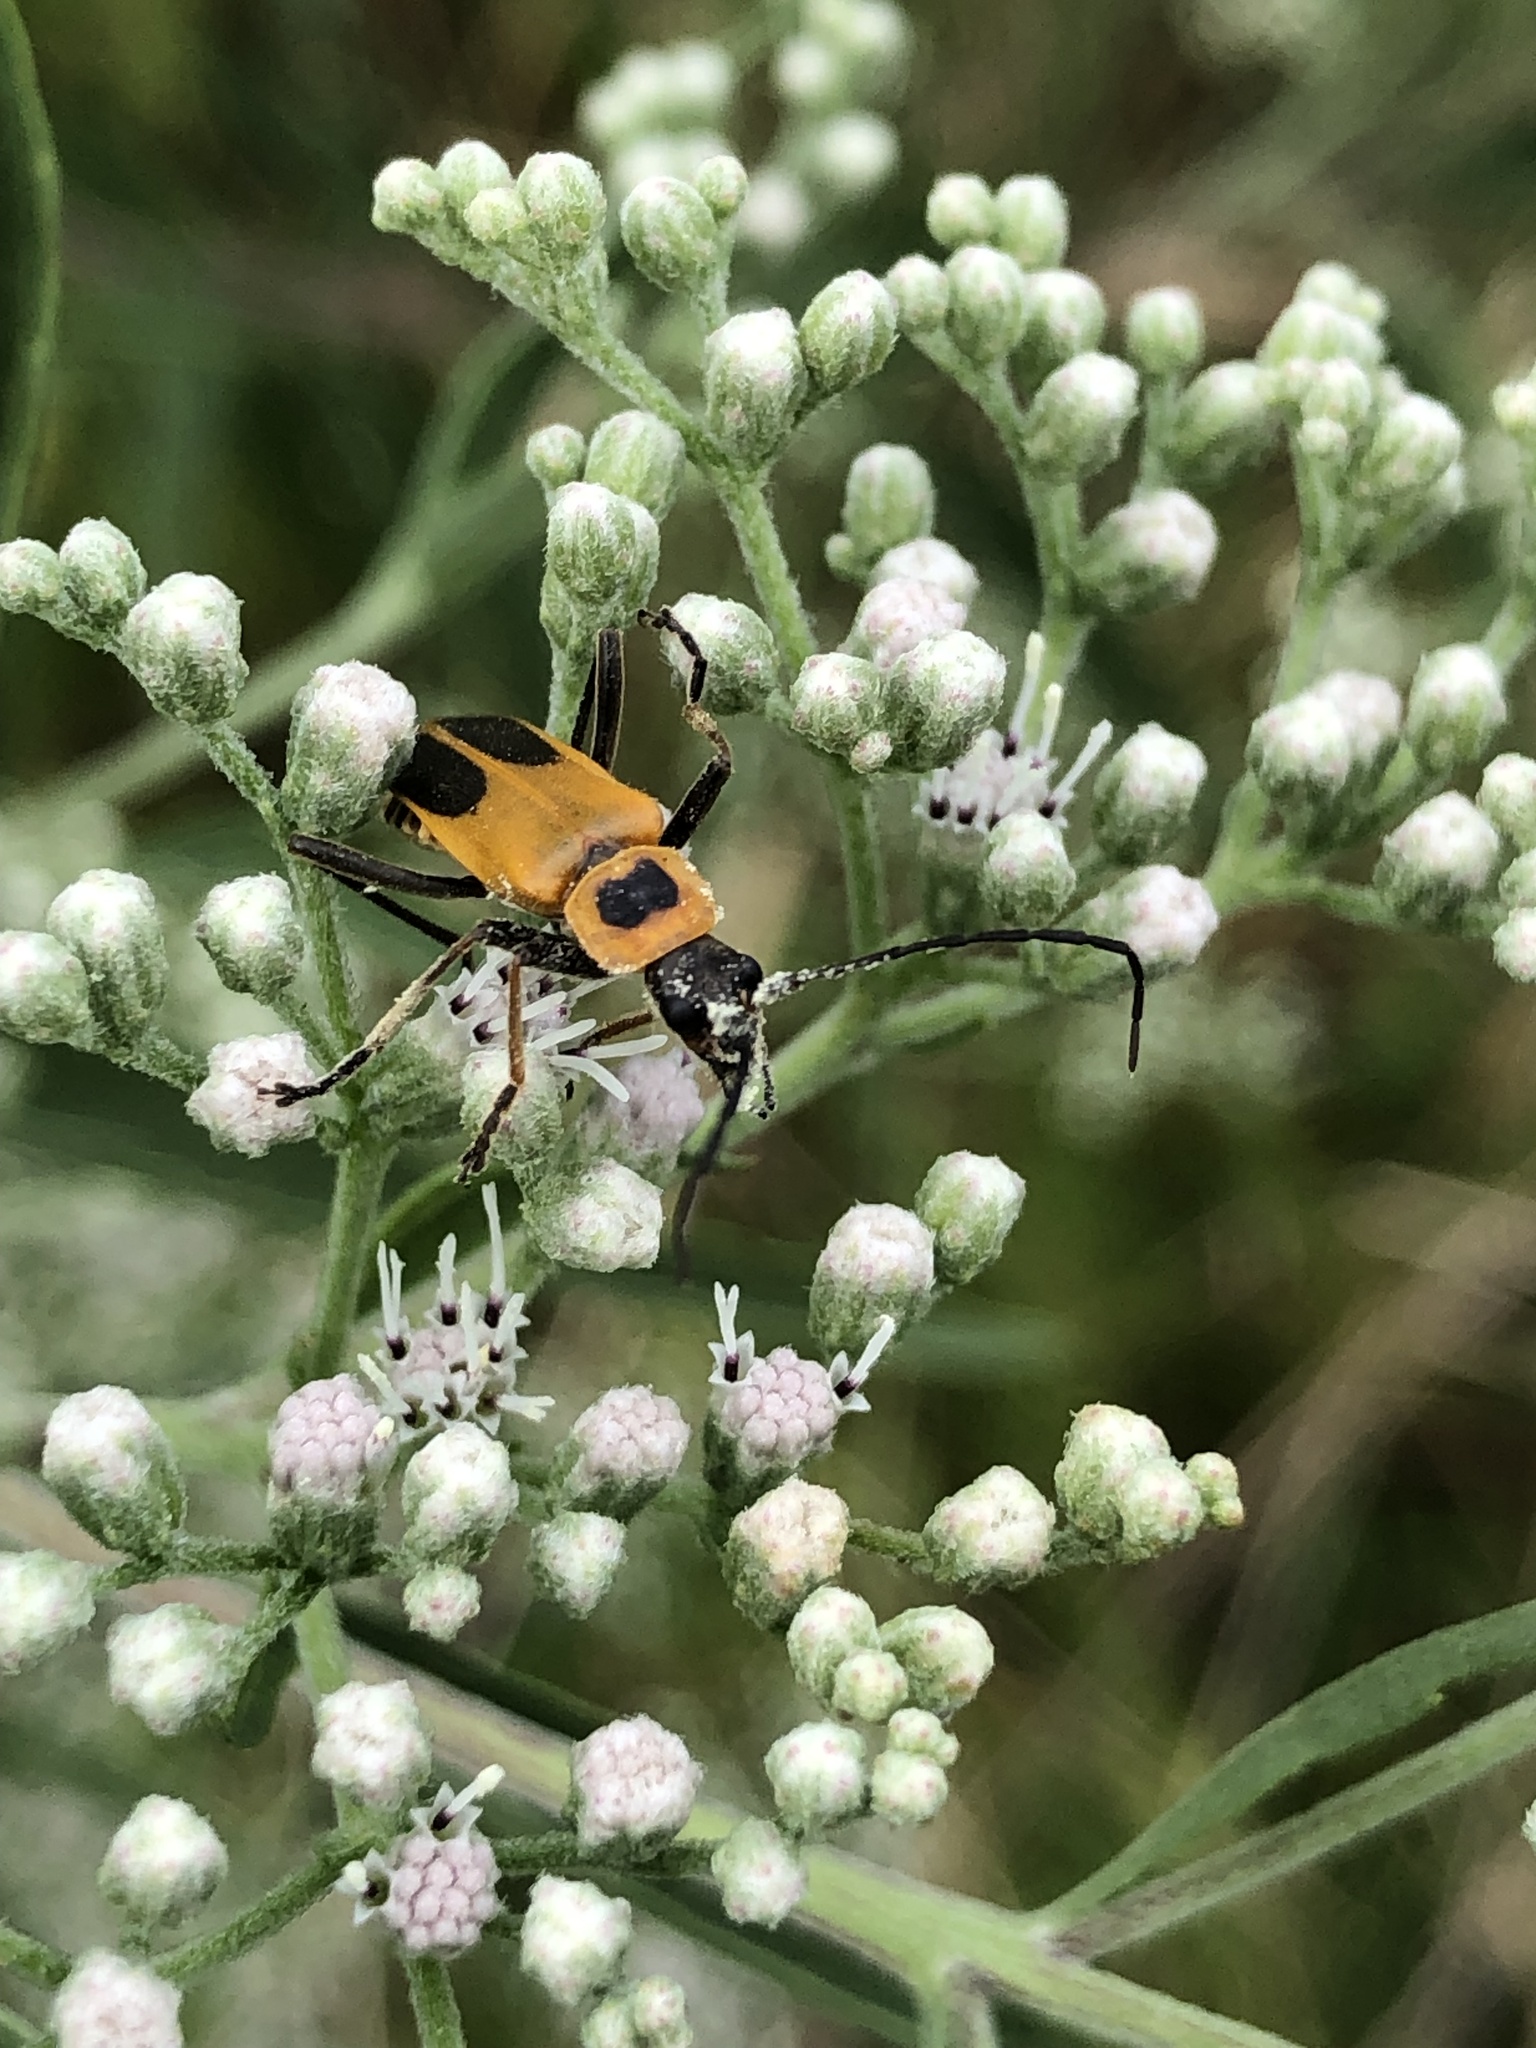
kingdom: Animalia
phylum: Arthropoda
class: Insecta
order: Coleoptera
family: Cantharidae
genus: Chauliognathus
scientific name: Chauliognathus pensylvanicus
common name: Goldenrod soldier beetle
